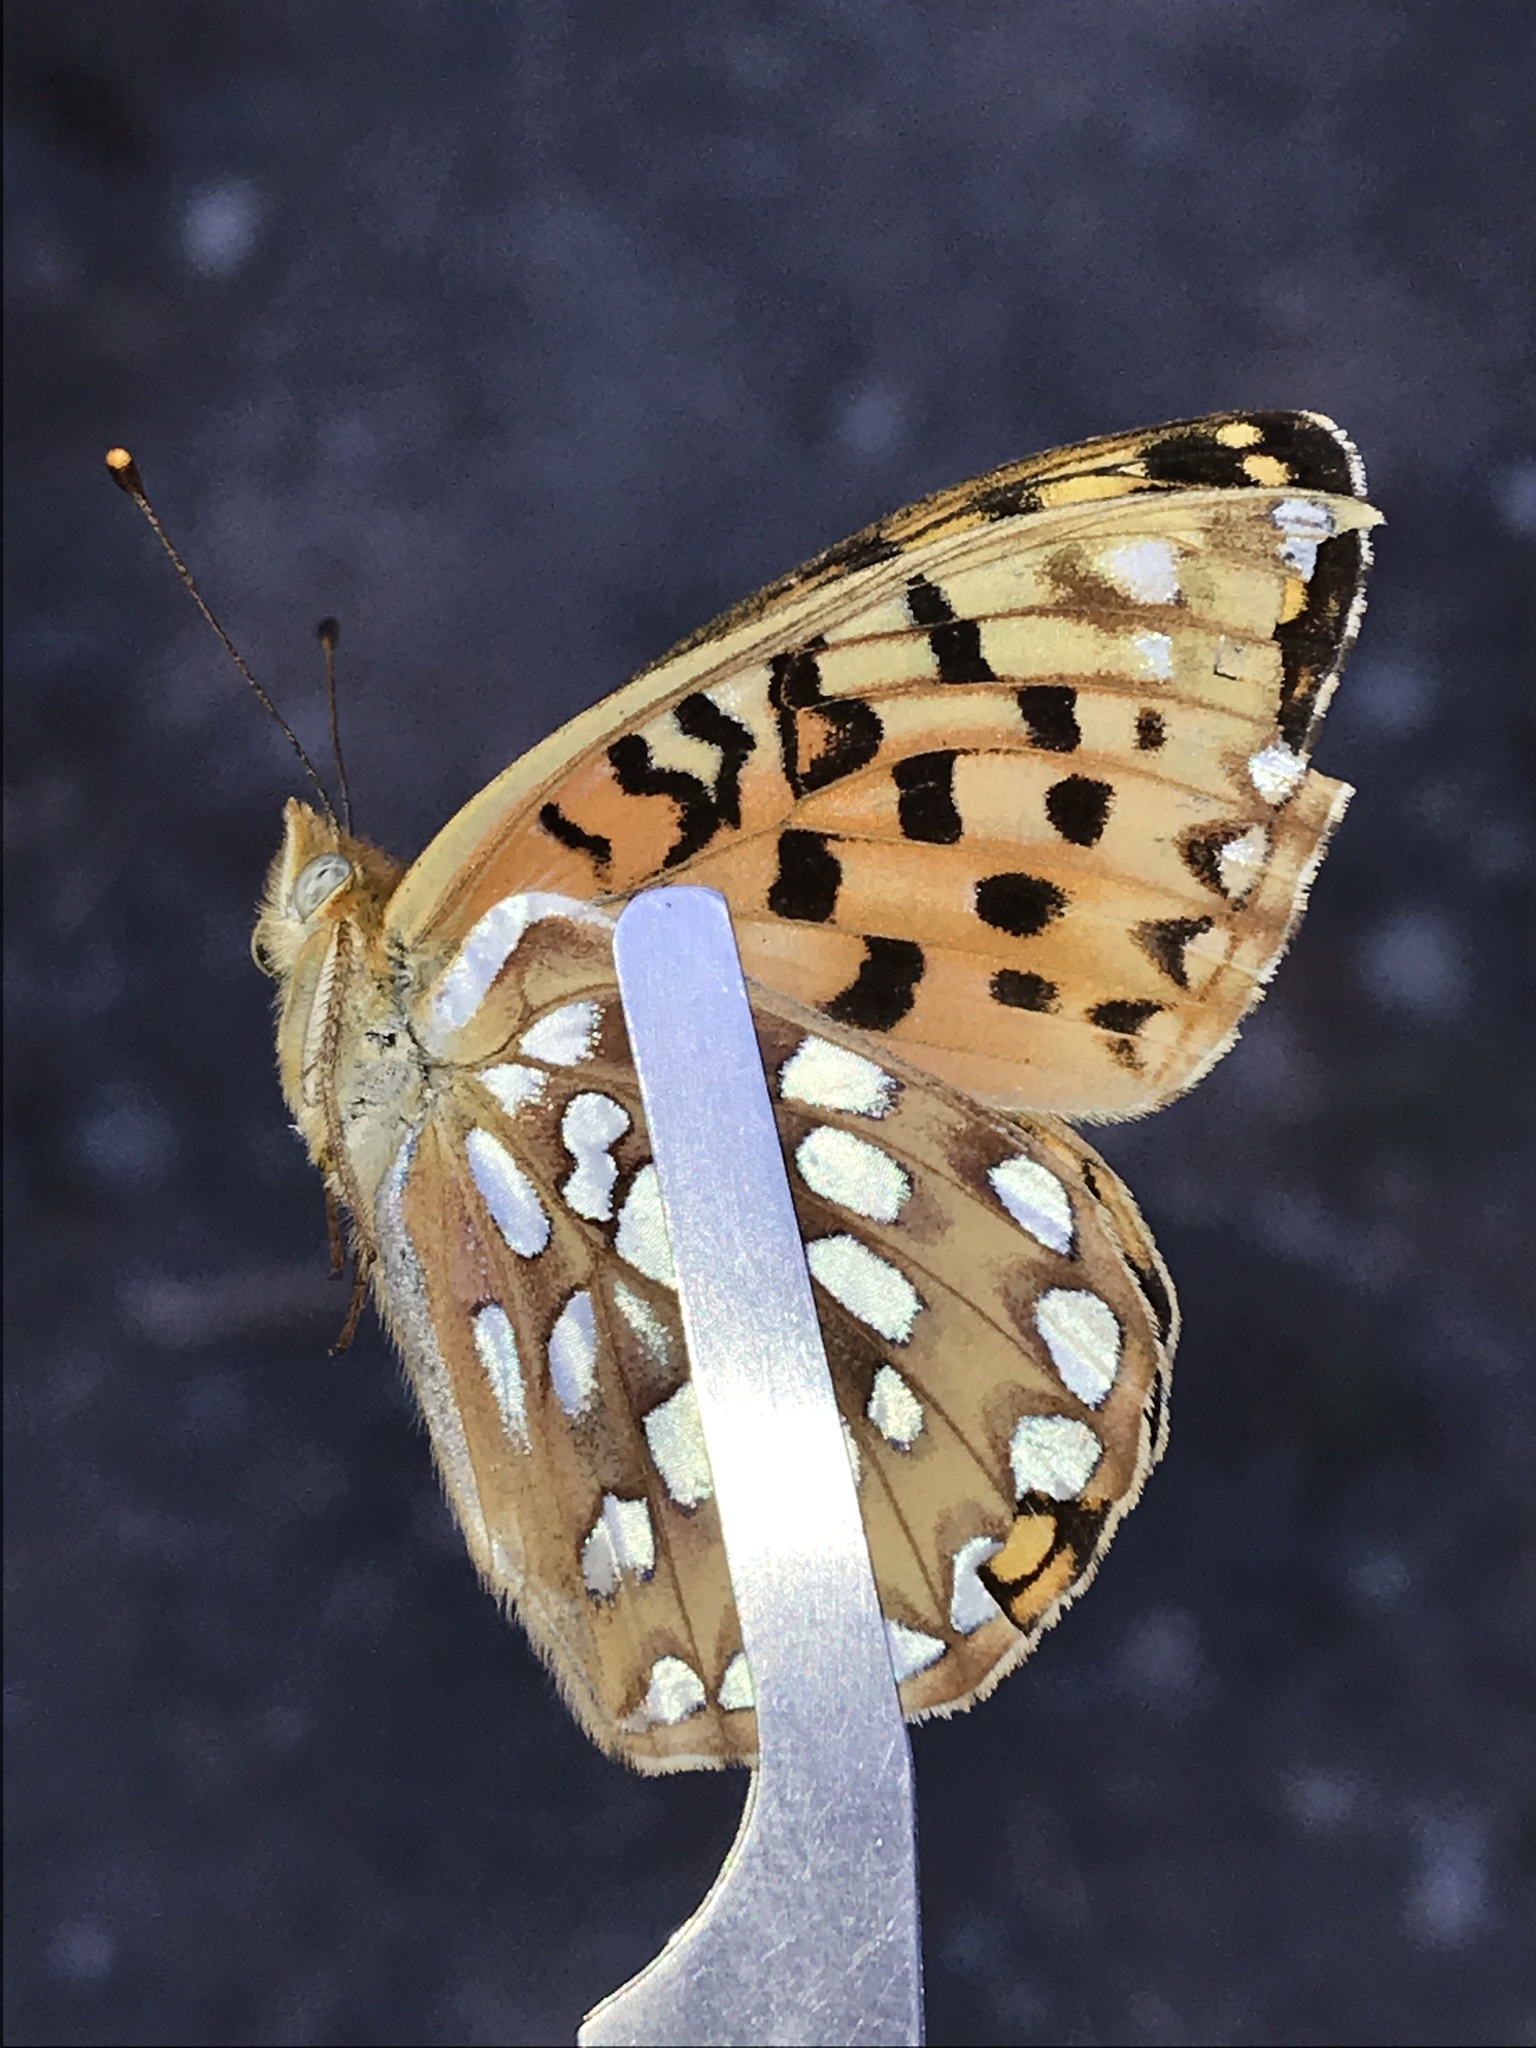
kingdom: Animalia
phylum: Arthropoda
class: Insecta
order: Lepidoptera
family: Nymphalidae
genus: Speyeria
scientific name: Speyeria zerene
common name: Zerene fritillary
